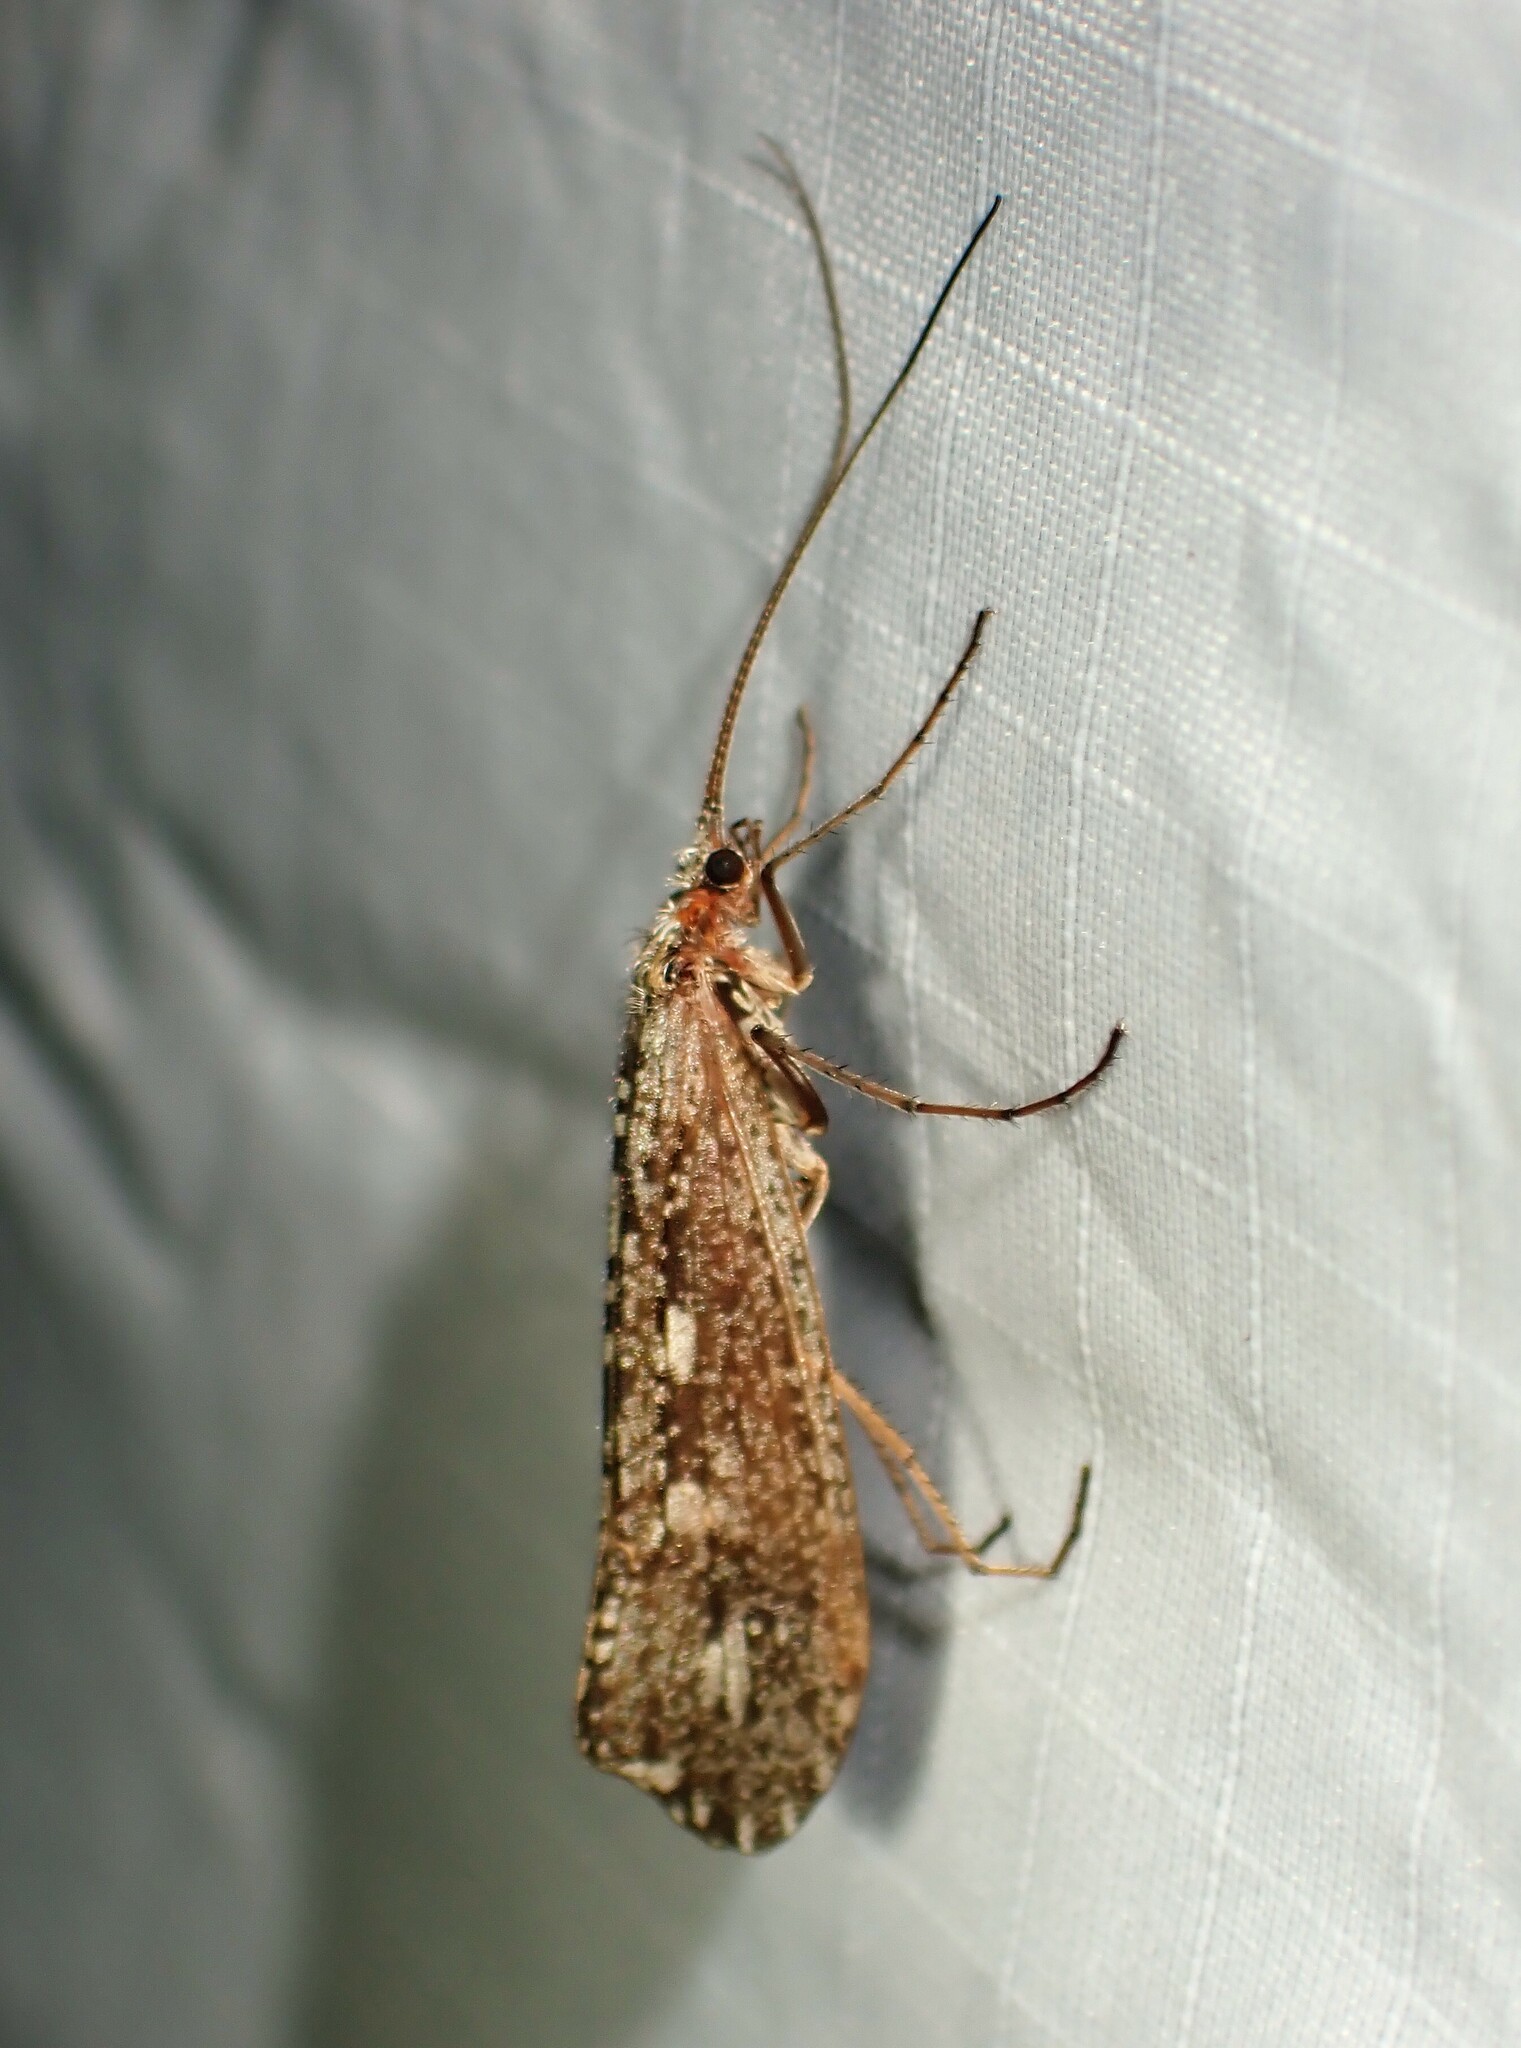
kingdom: Animalia
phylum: Arthropoda
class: Insecta
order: Trichoptera
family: Limnephilidae
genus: Glyphopsyche
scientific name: Glyphopsyche irrorata
